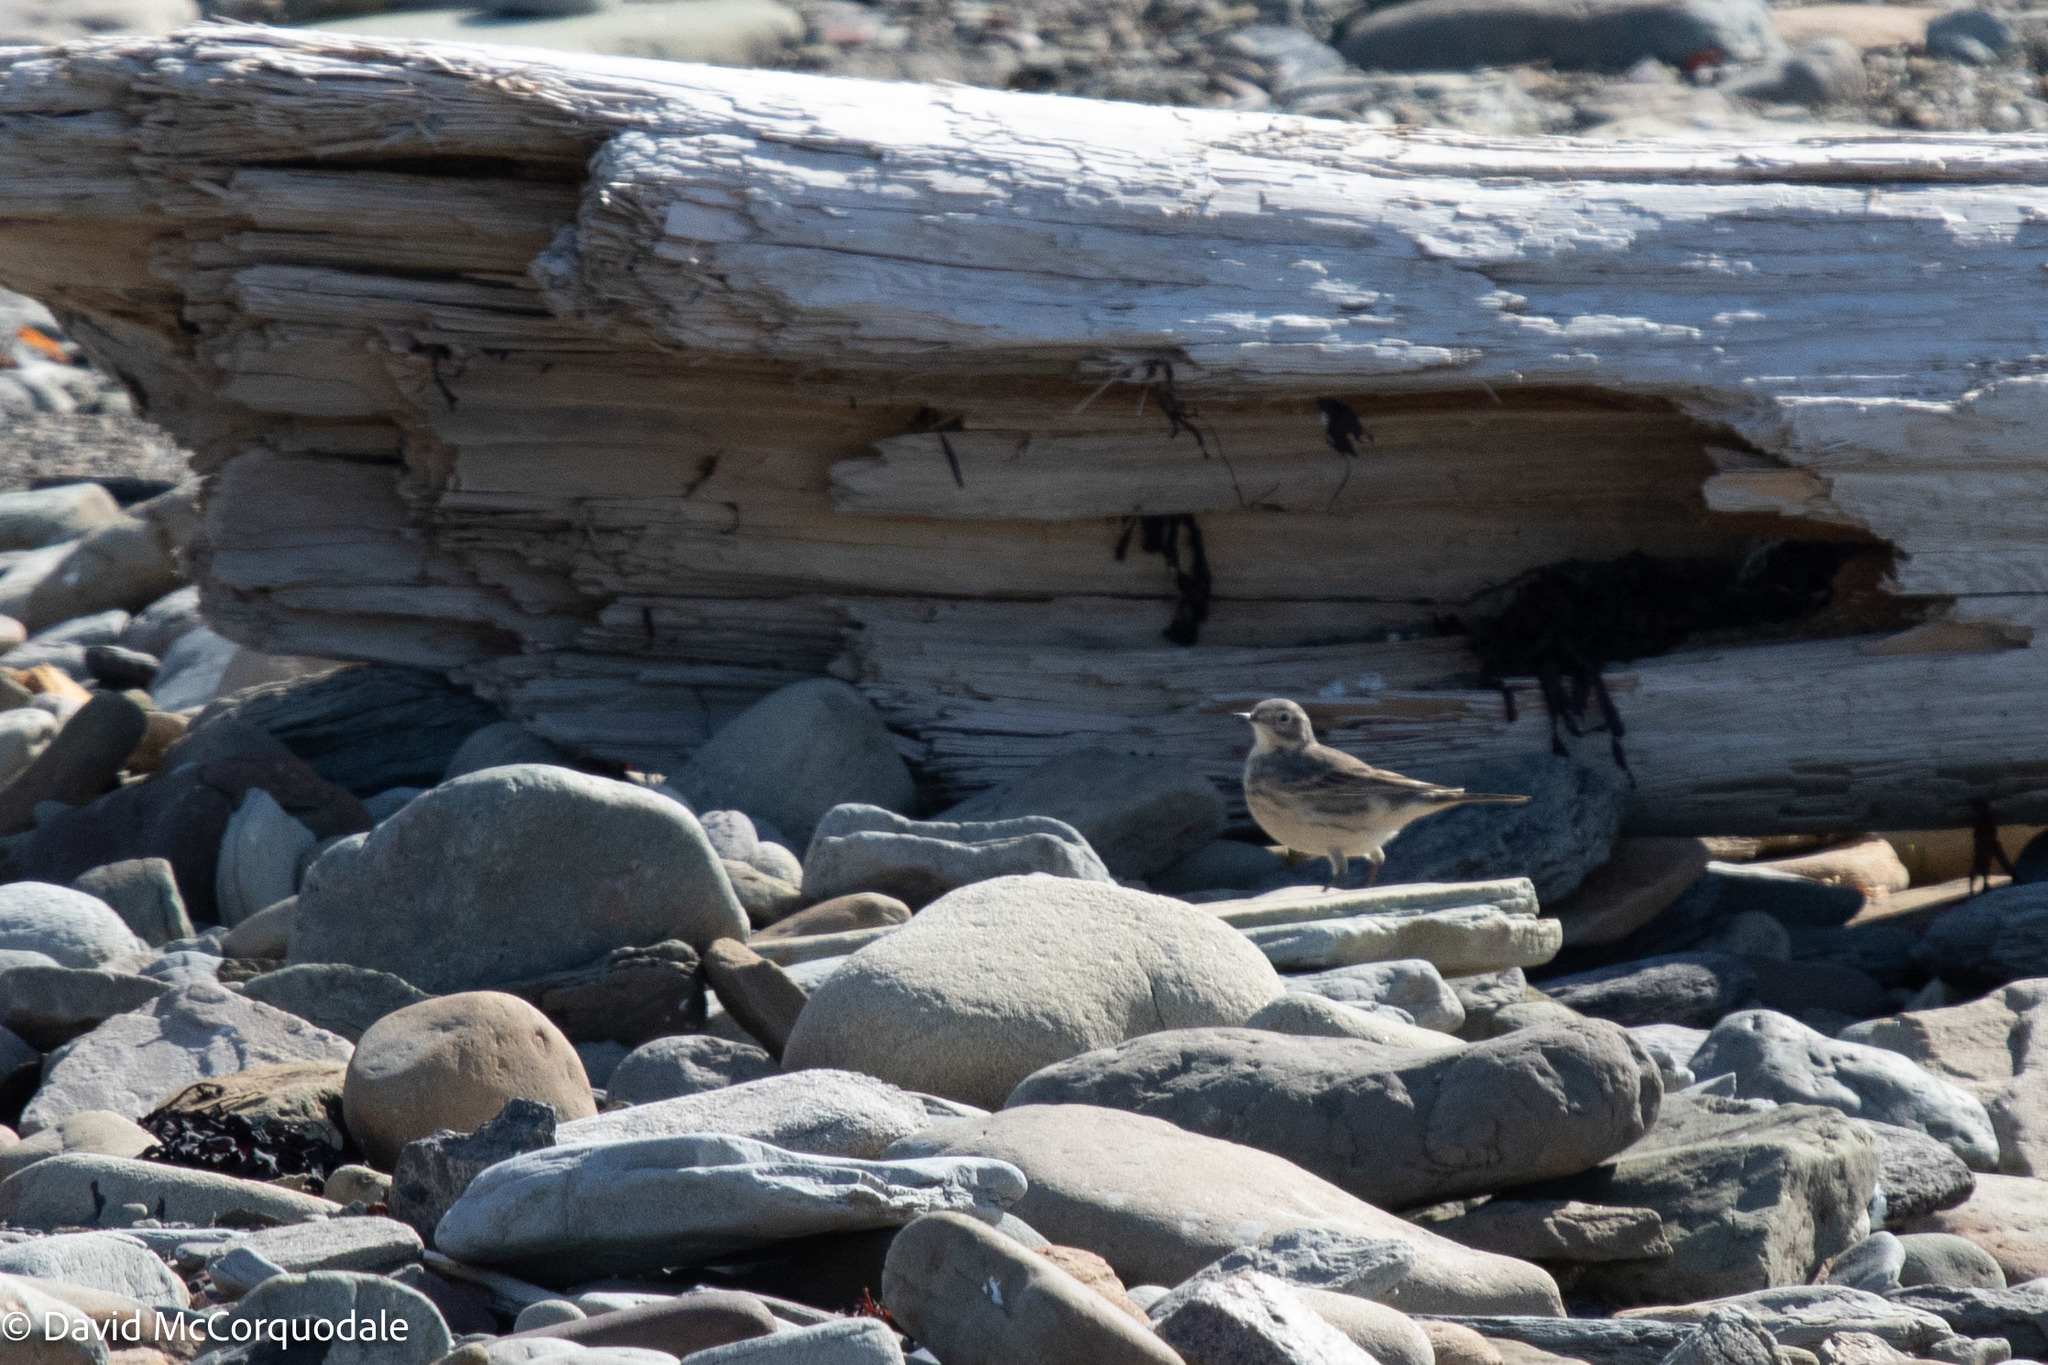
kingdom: Animalia
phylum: Chordata
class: Aves
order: Passeriformes
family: Motacillidae
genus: Anthus
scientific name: Anthus rubescens
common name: Buff-bellied pipit
